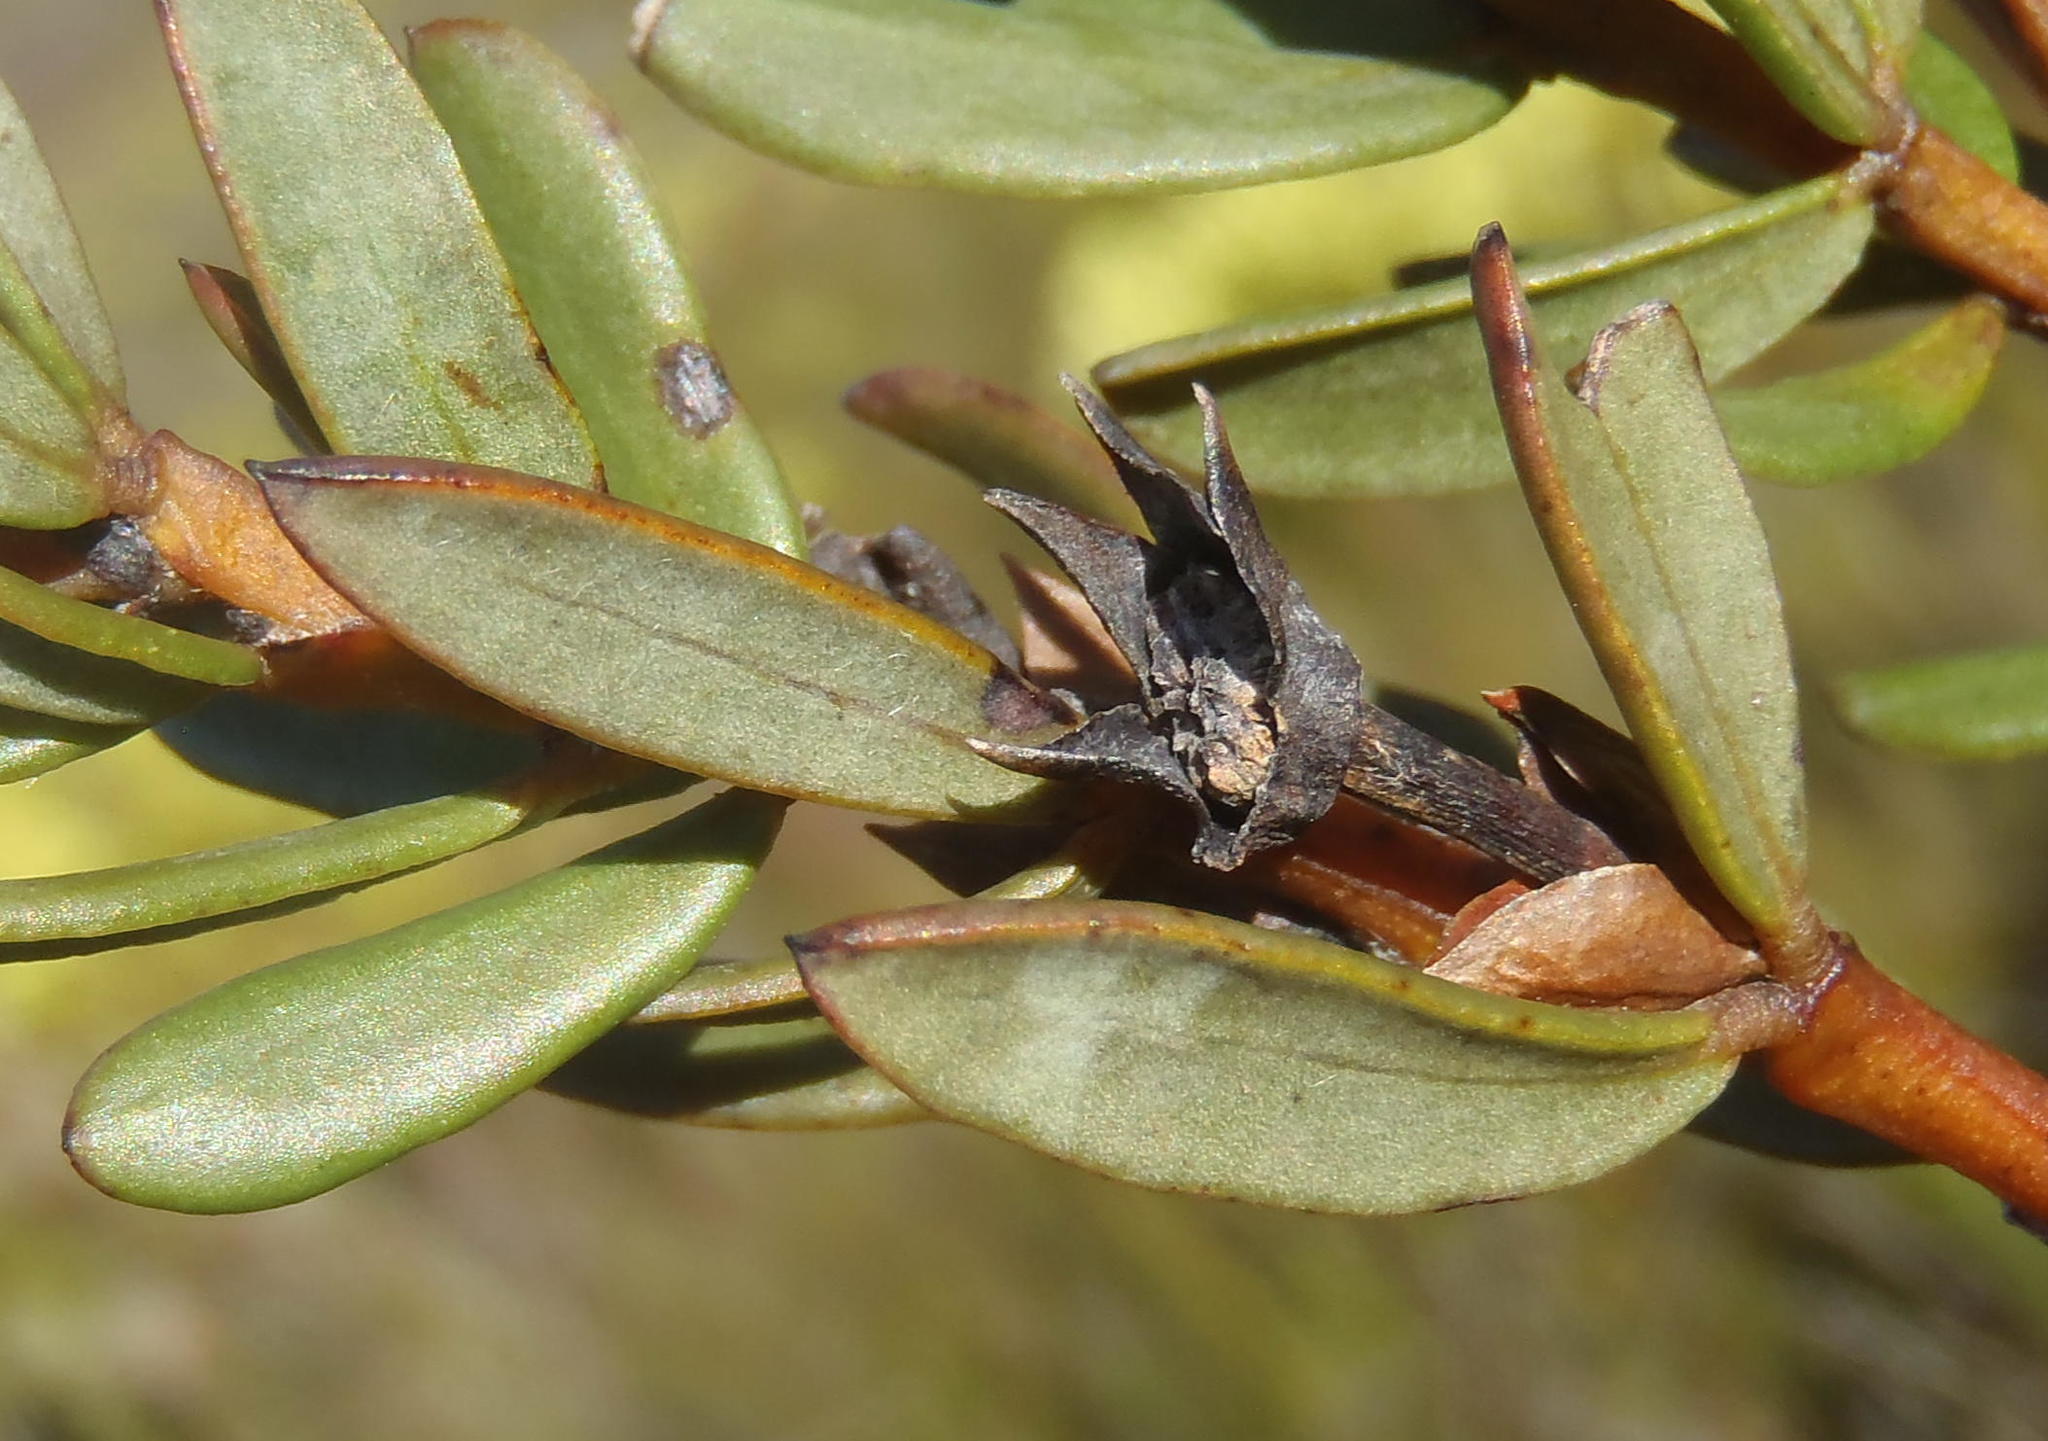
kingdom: Plantae
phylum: Tracheophyta
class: Magnoliopsida
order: Fabales
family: Fabaceae
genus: Cyclopia
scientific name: Cyclopia subternata
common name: Honeybush tea
